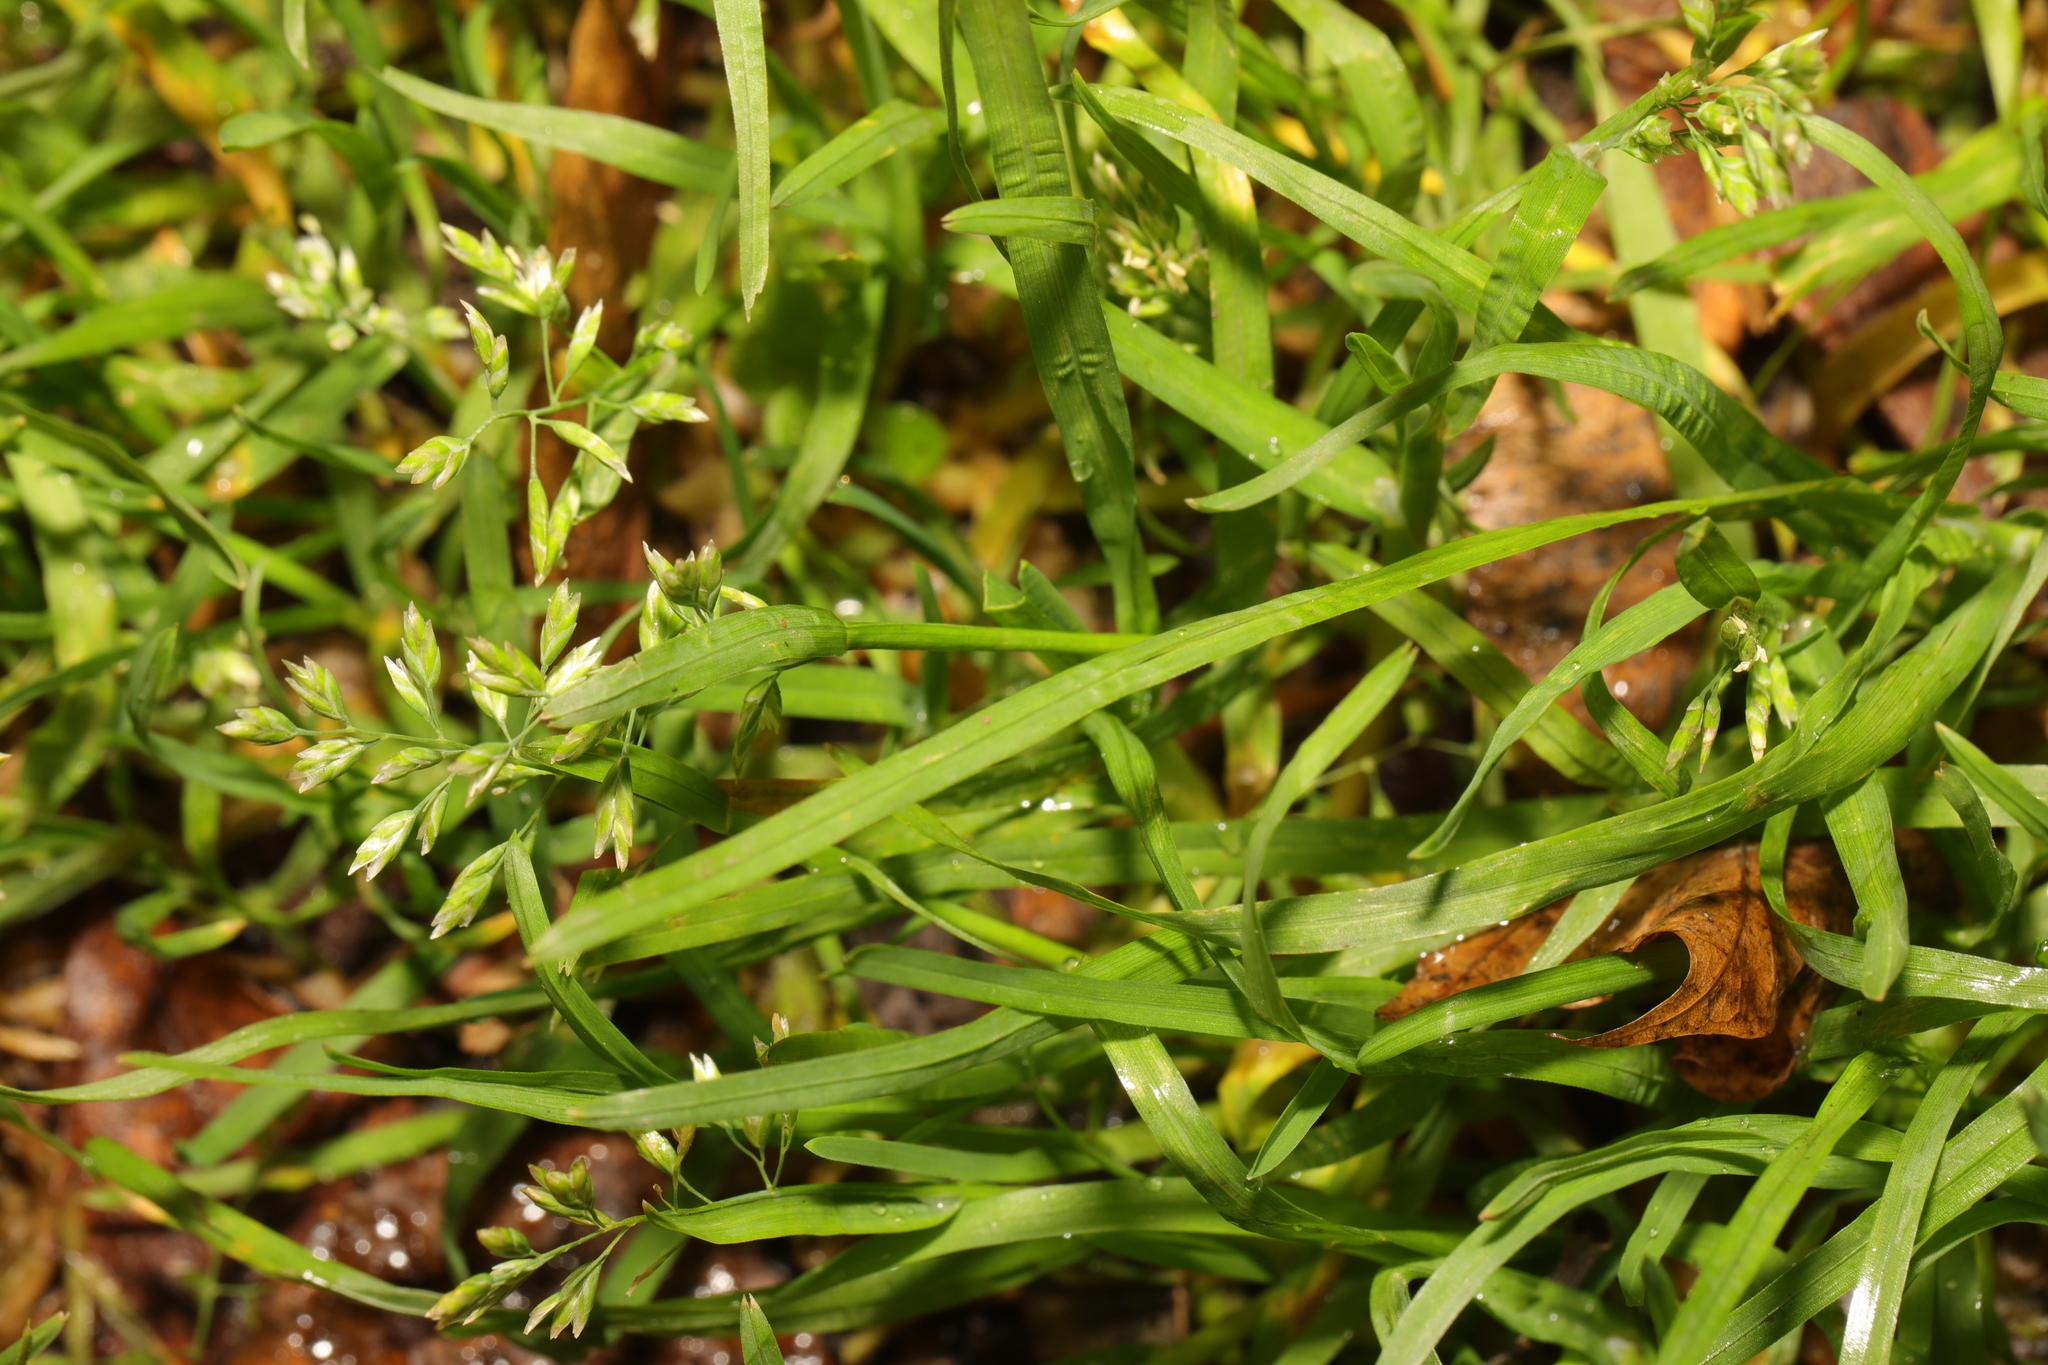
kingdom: Plantae
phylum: Tracheophyta
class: Liliopsida
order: Poales
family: Poaceae
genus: Poa
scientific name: Poa annua
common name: Annual bluegrass
